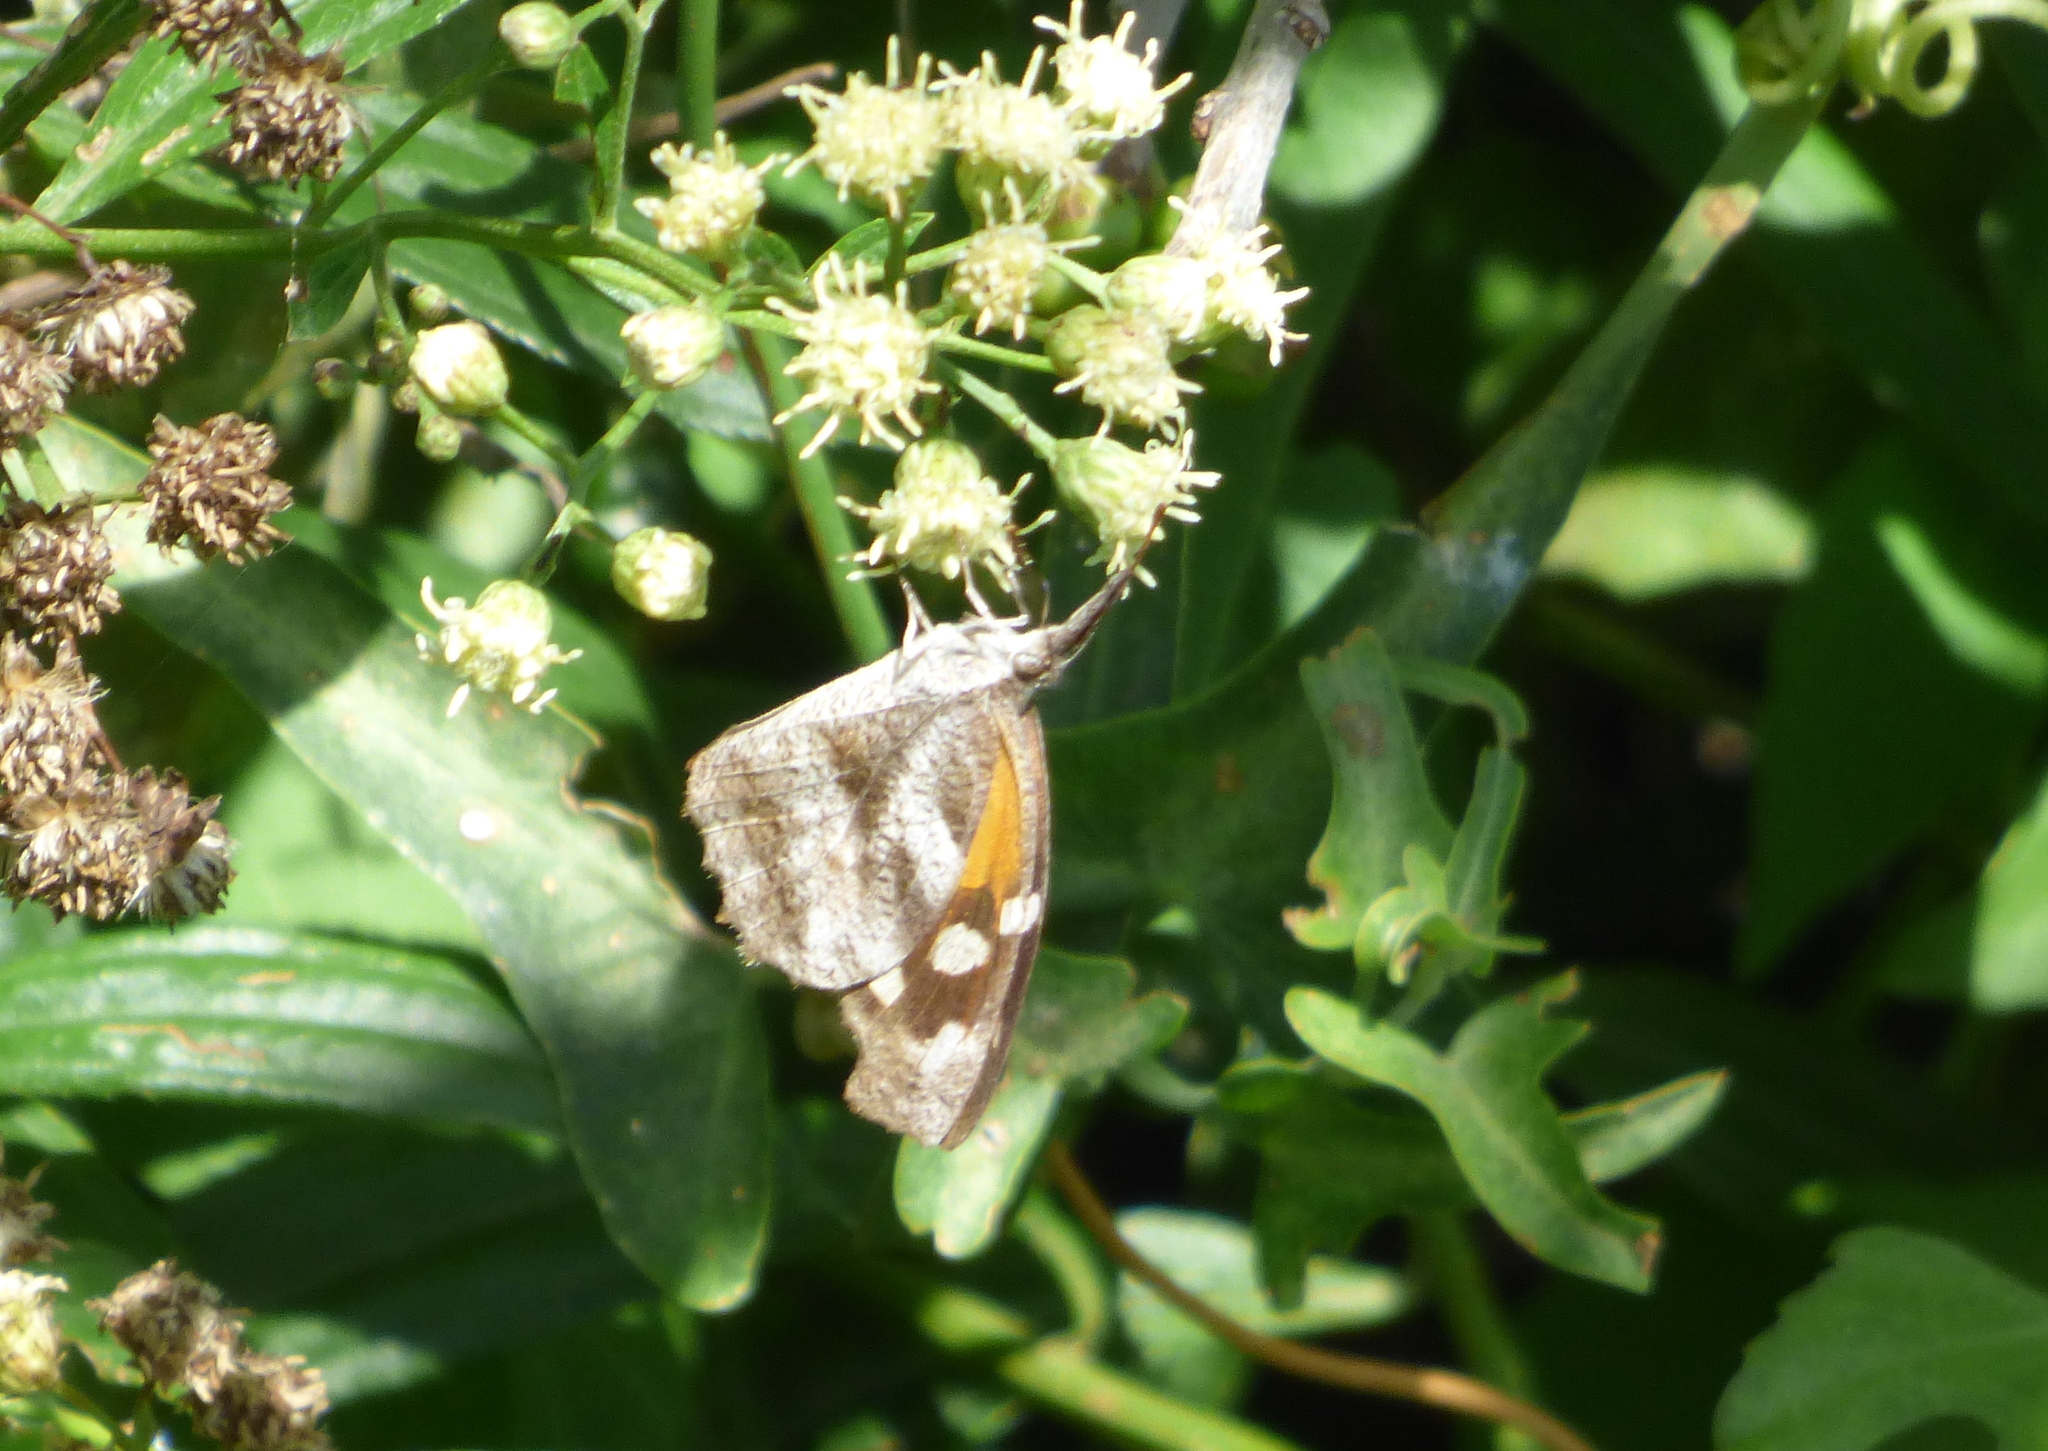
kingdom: Animalia
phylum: Arthropoda
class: Insecta
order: Lepidoptera
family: Nymphalidae
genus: Libytheana
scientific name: Libytheana carinenta
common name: American snout
